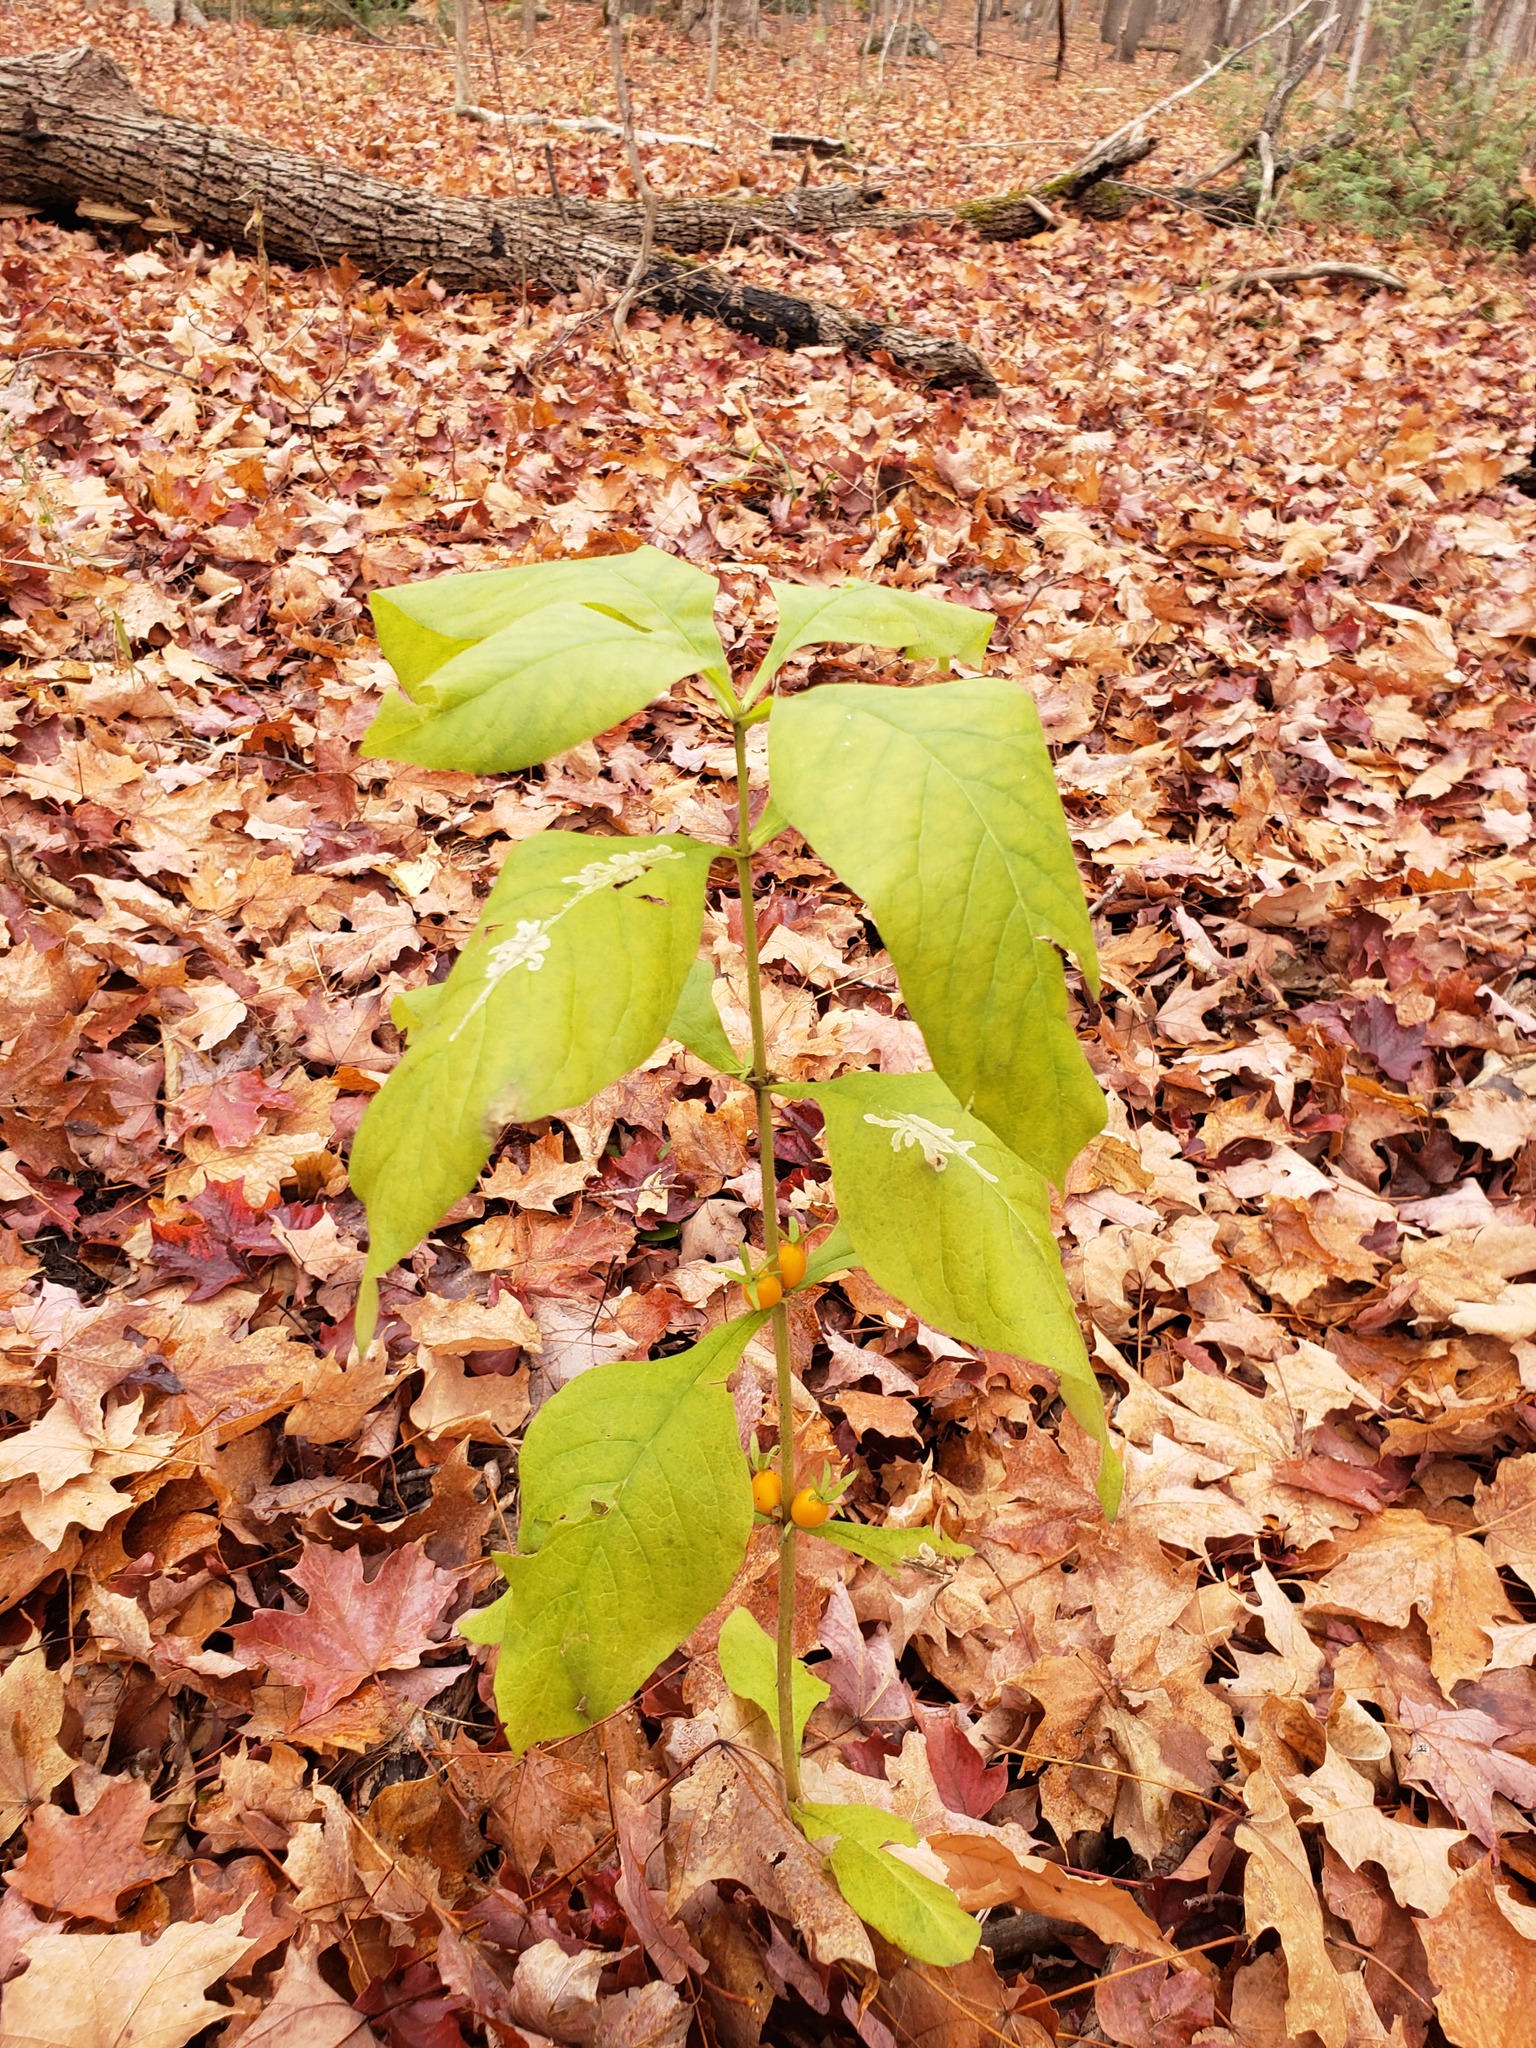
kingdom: Plantae
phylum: Tracheophyta
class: Magnoliopsida
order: Dipsacales
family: Caprifoliaceae
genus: Triosteum
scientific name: Triosteum aurantiacum
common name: Coffee tinker's-weed
